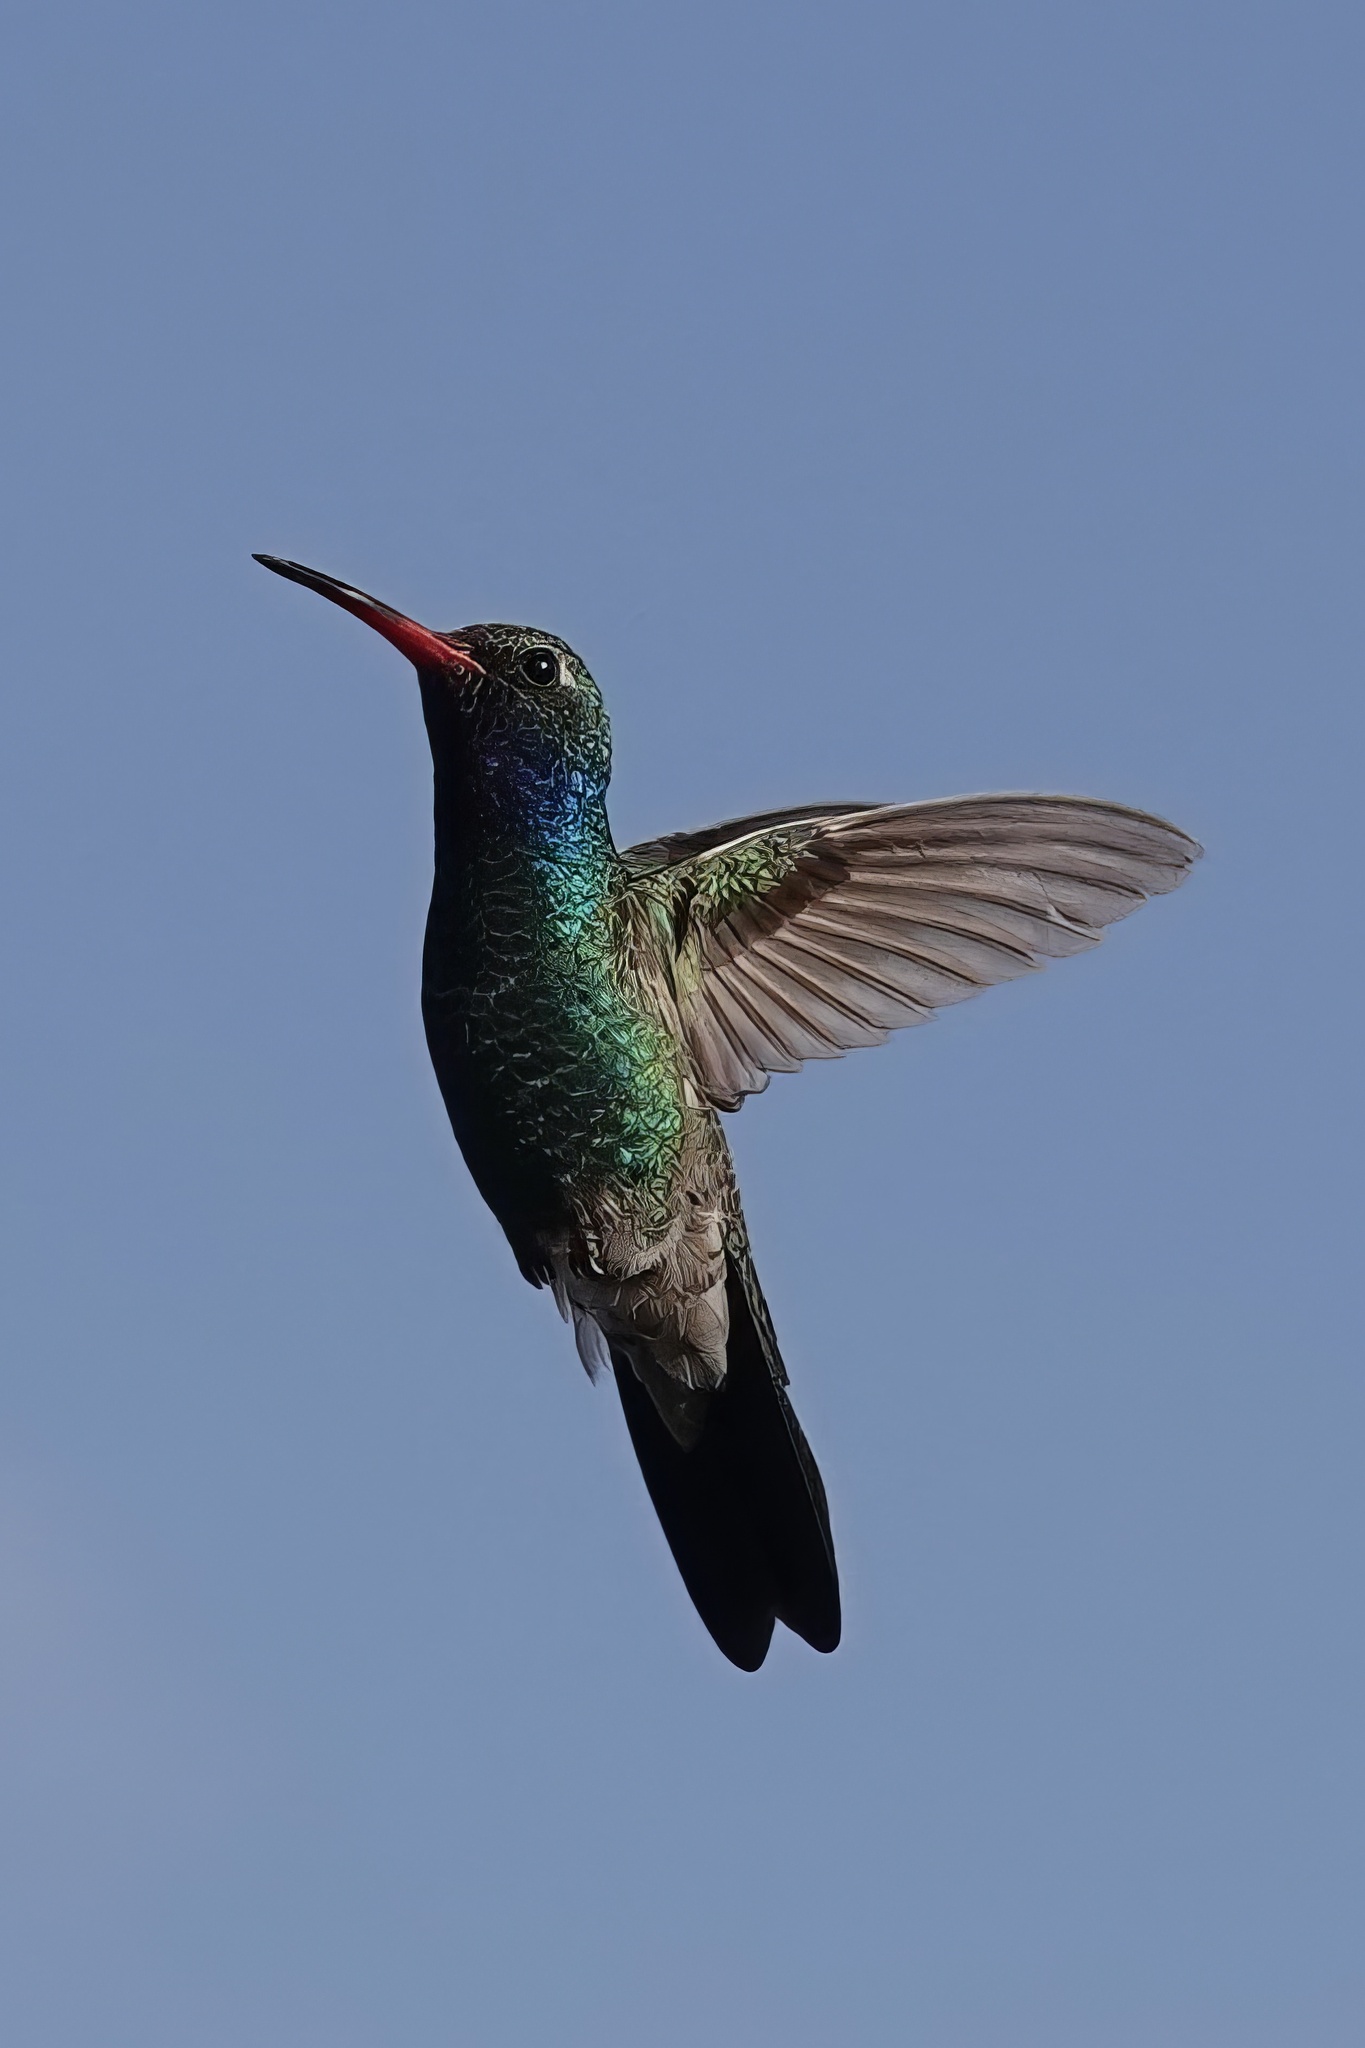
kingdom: Animalia
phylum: Chordata
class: Aves
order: Apodiformes
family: Trochilidae
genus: Cynanthus
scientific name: Cynanthus latirostris
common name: Broad-billed hummingbird
